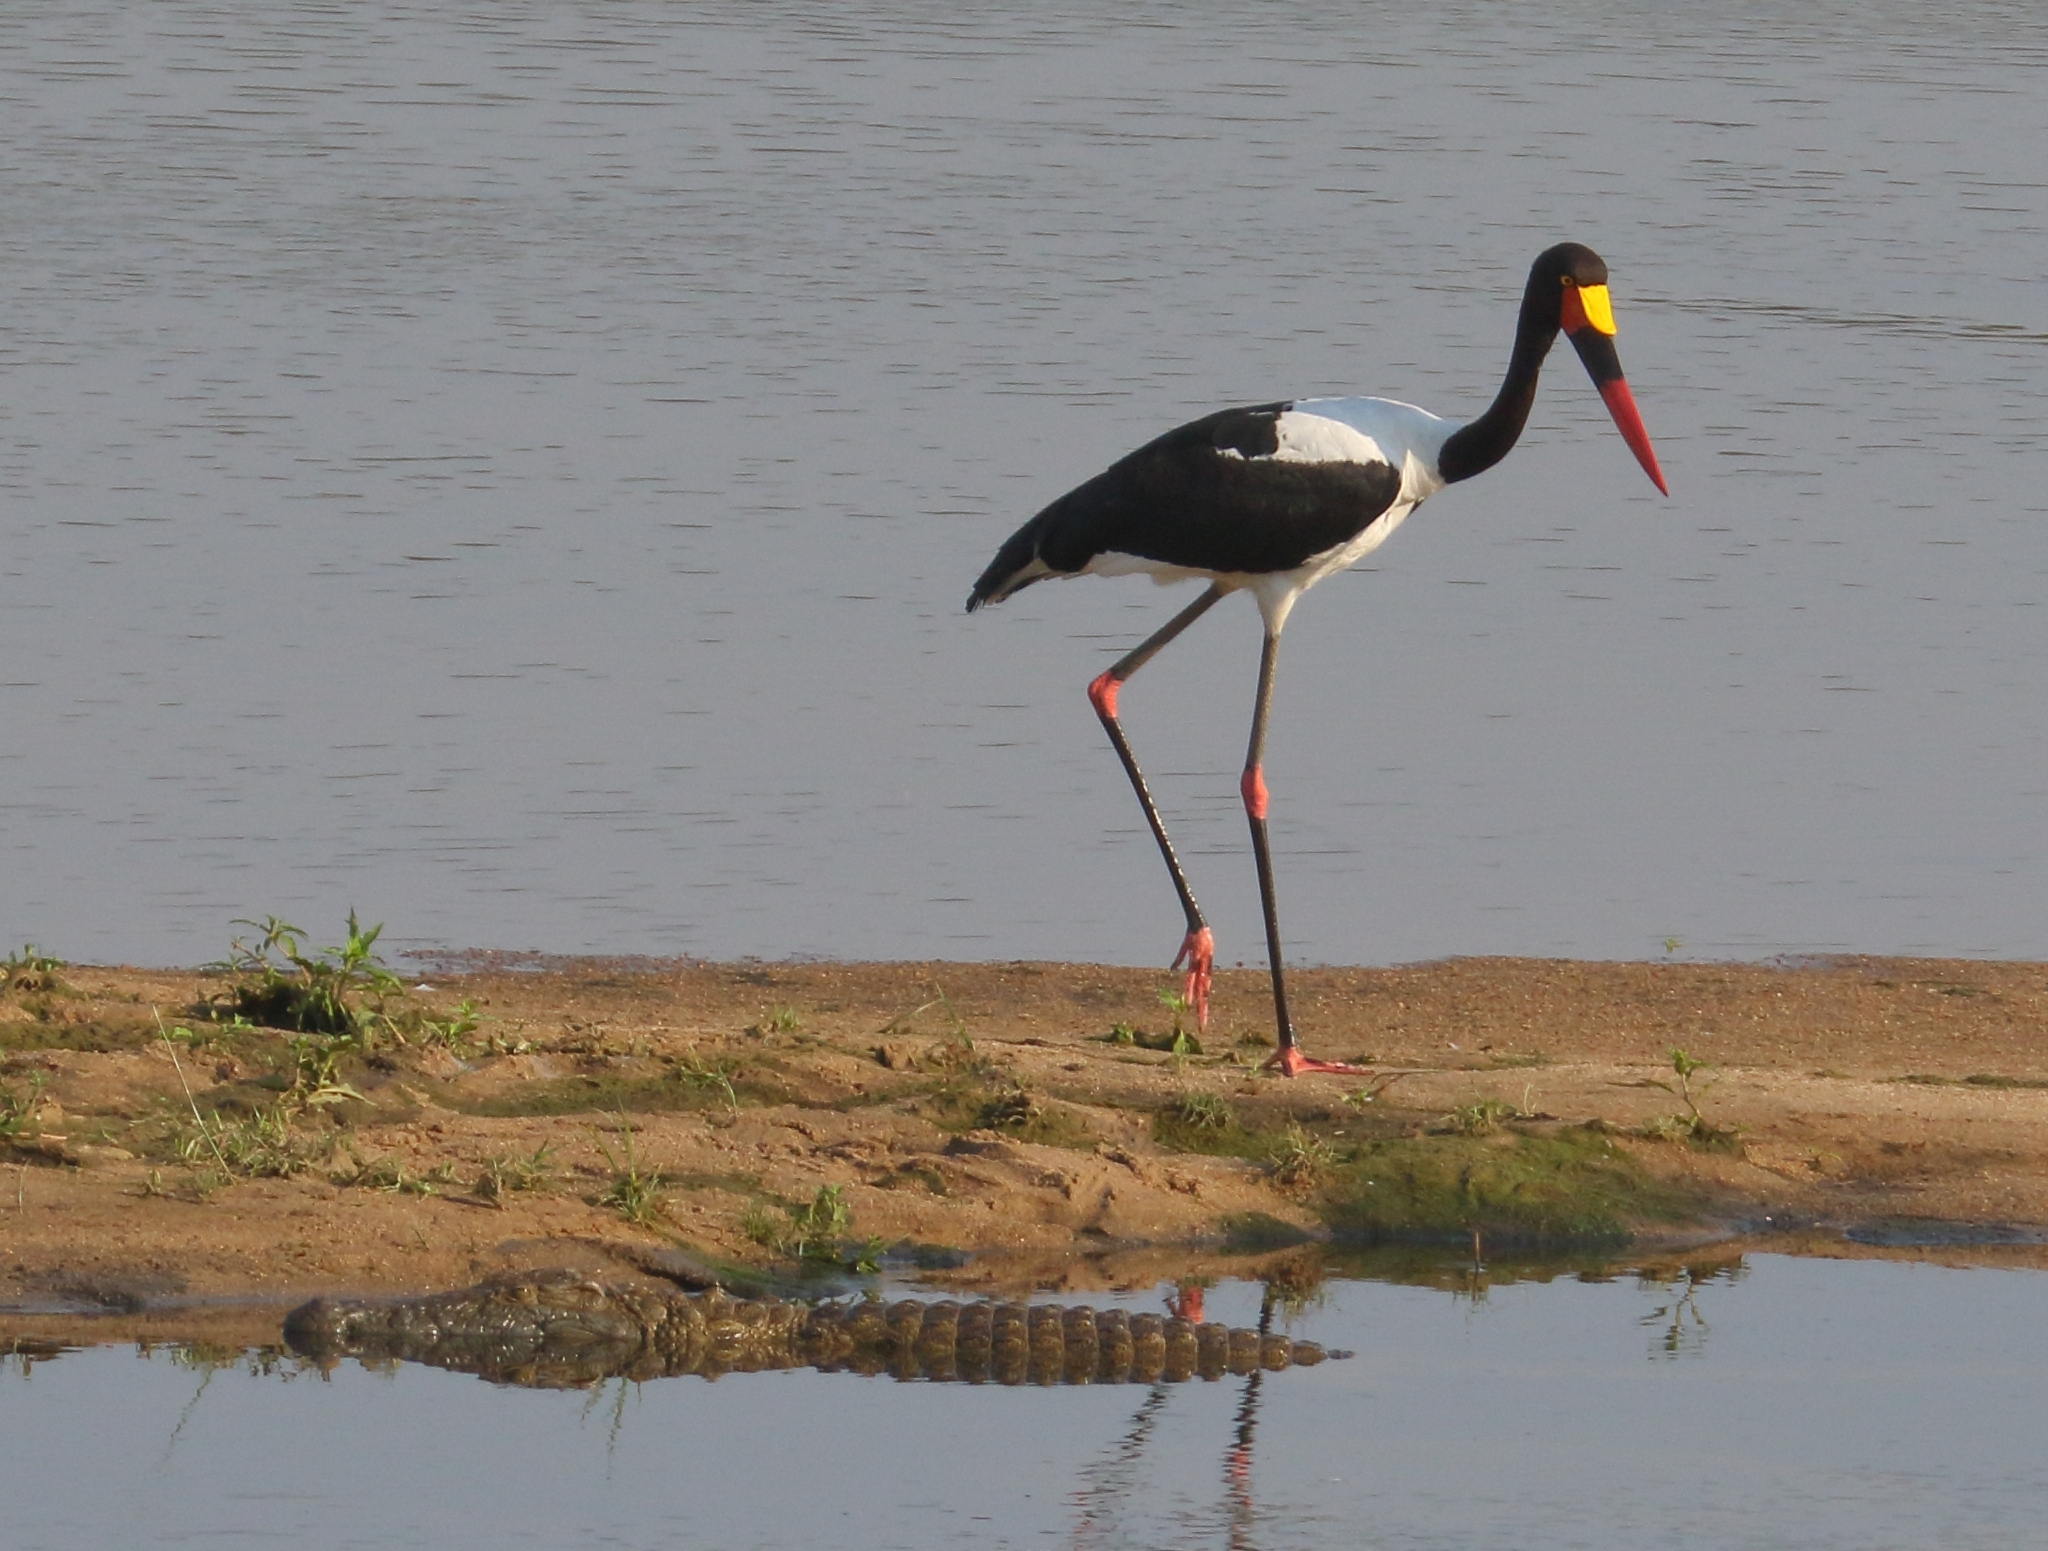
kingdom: Animalia
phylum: Chordata
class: Aves
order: Ciconiiformes
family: Ciconiidae
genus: Ephippiorhynchus
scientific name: Ephippiorhynchus senegalensis
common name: Saddle-billed stork
